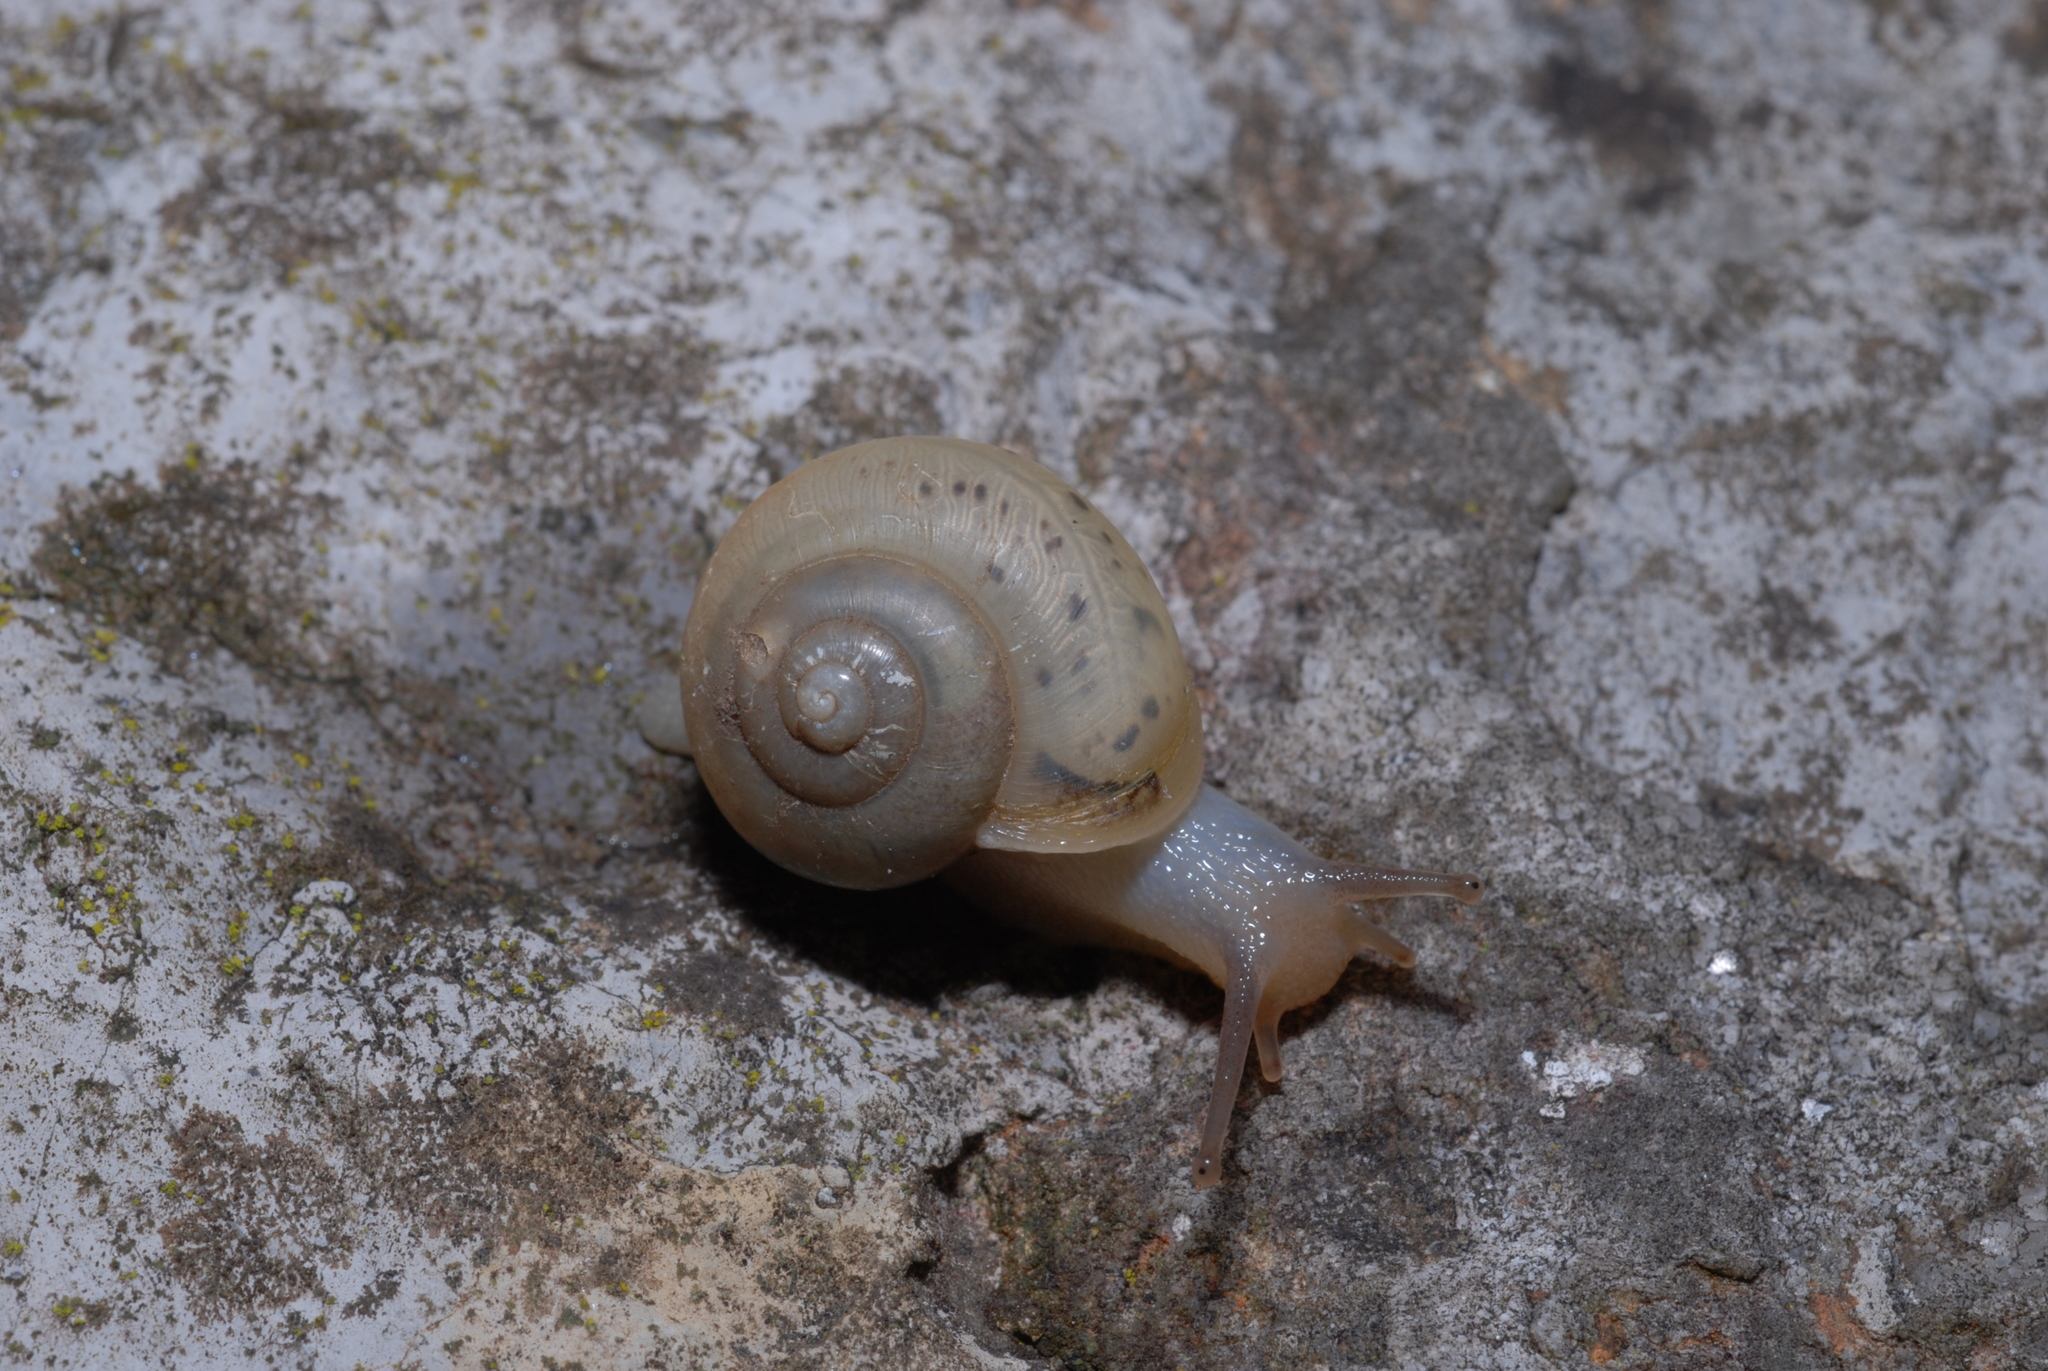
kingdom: Animalia
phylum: Mollusca
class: Gastropoda
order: Stylommatophora
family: Camaenidae
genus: Fruticicola
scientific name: Fruticicola fruticum
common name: Bush snail
